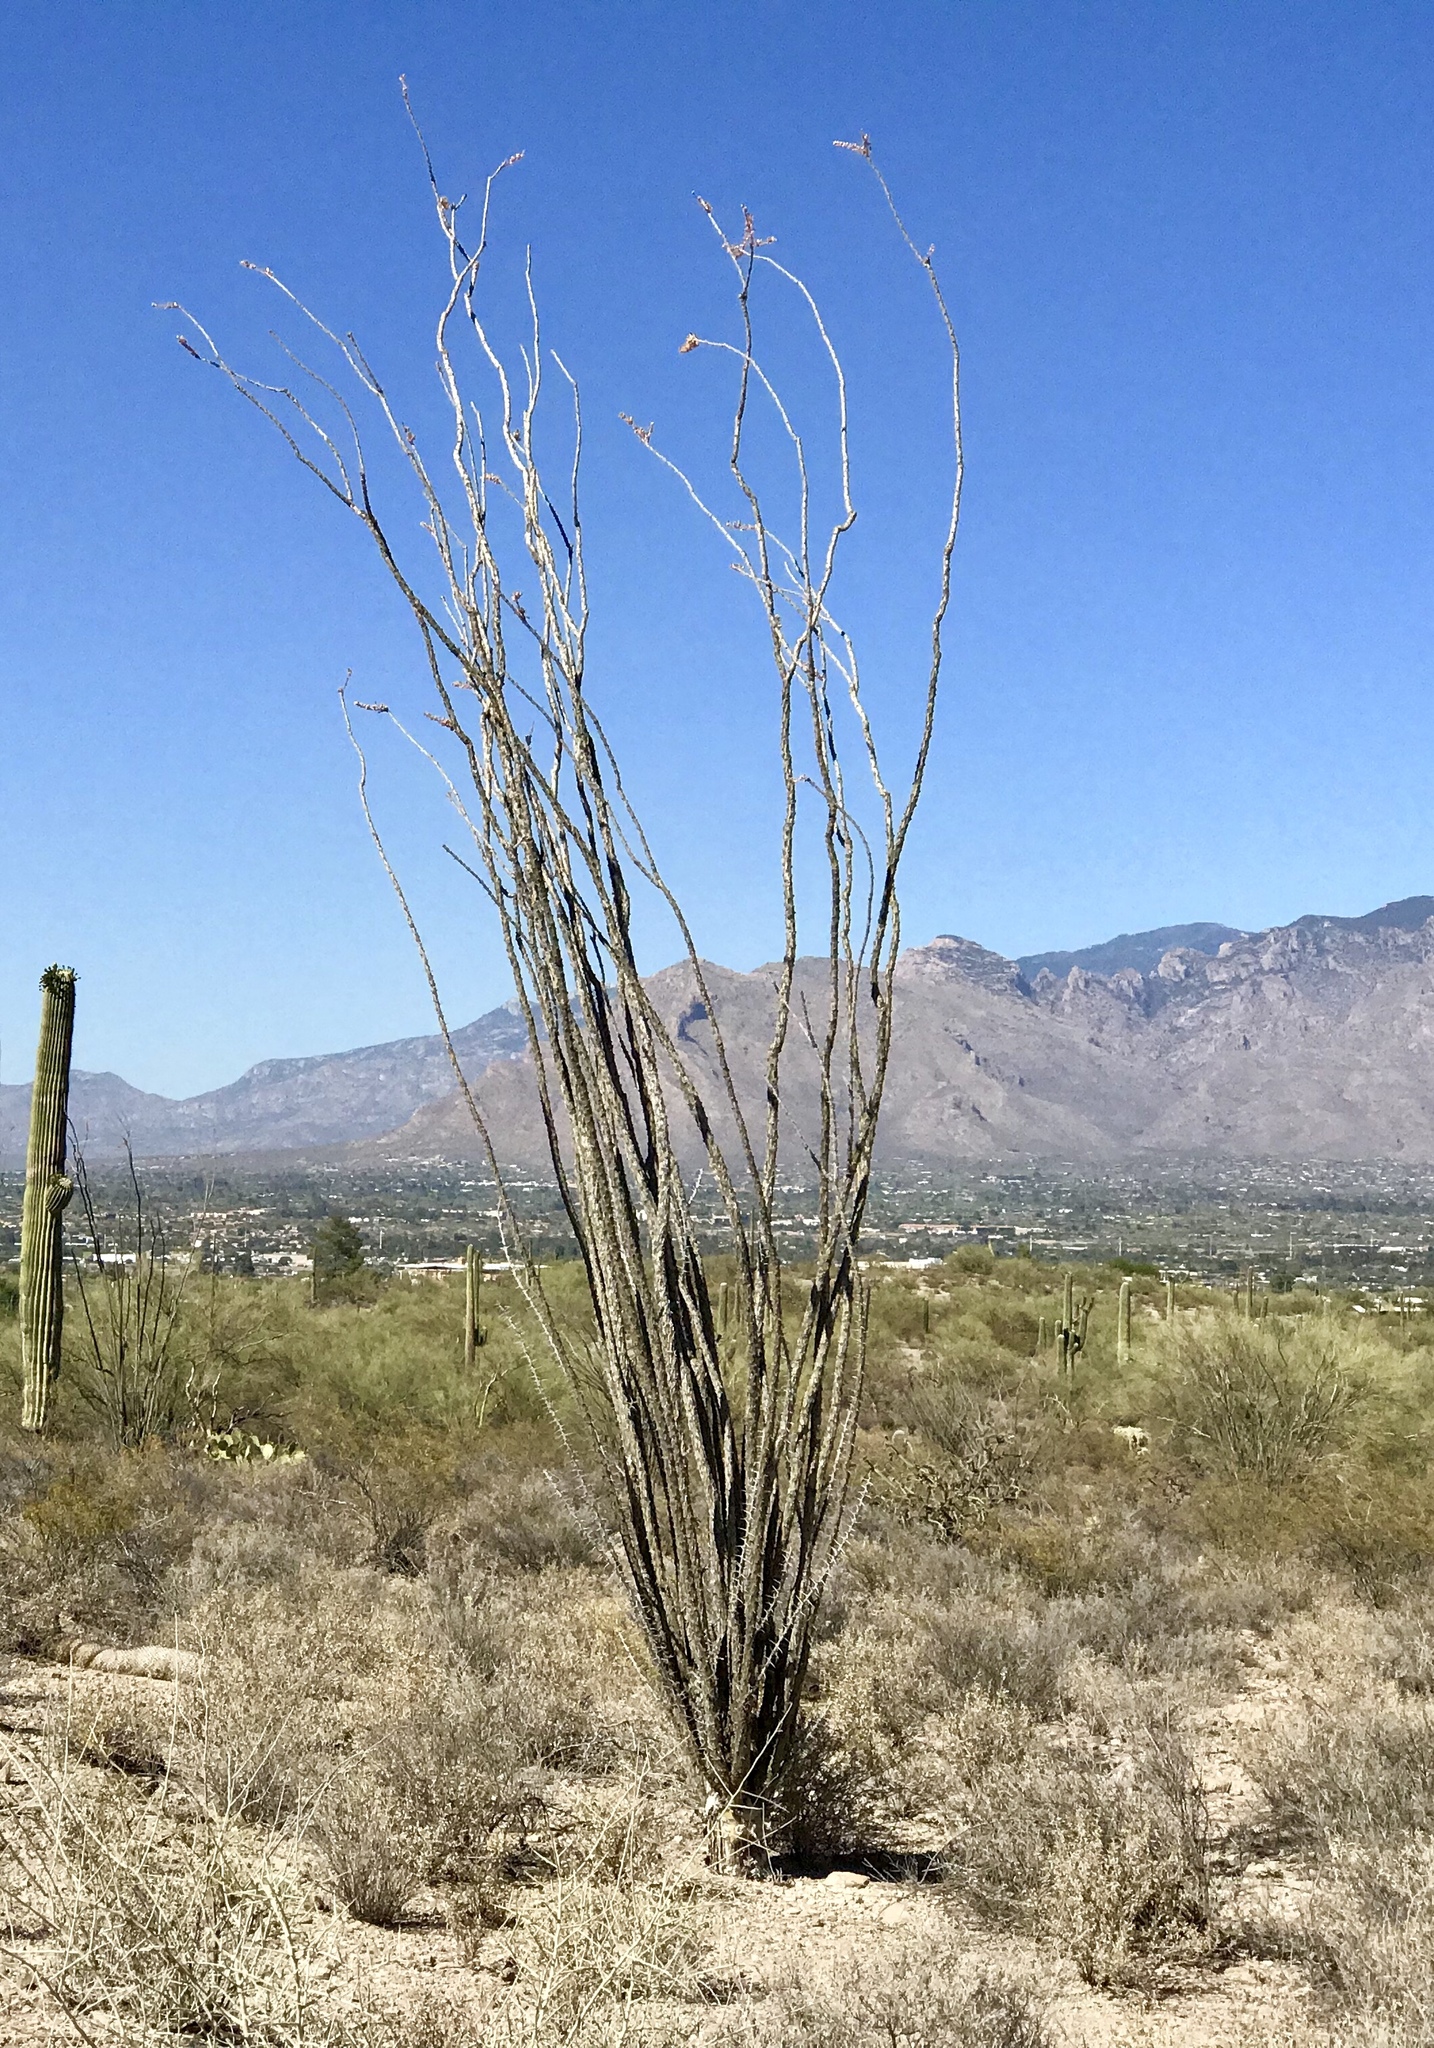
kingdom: Plantae
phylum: Tracheophyta
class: Magnoliopsida
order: Ericales
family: Fouquieriaceae
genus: Fouquieria
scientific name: Fouquieria splendens
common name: Vine-cactus
